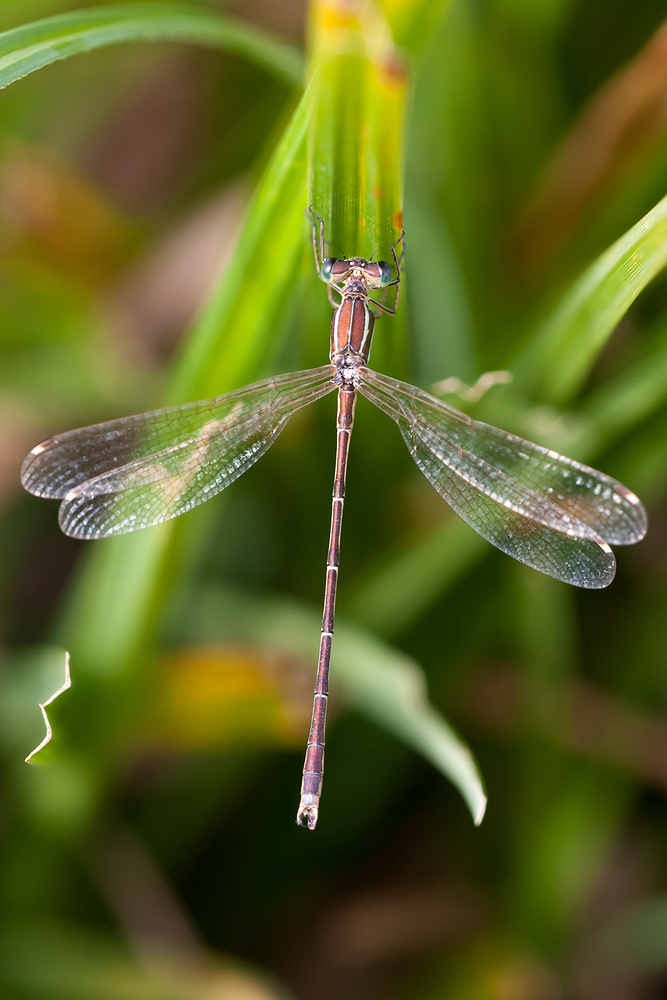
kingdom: Animalia
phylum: Arthropoda
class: Insecta
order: Odonata
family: Lestidae
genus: Lestes
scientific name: Lestes barbarus
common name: Migrant spreadwing
